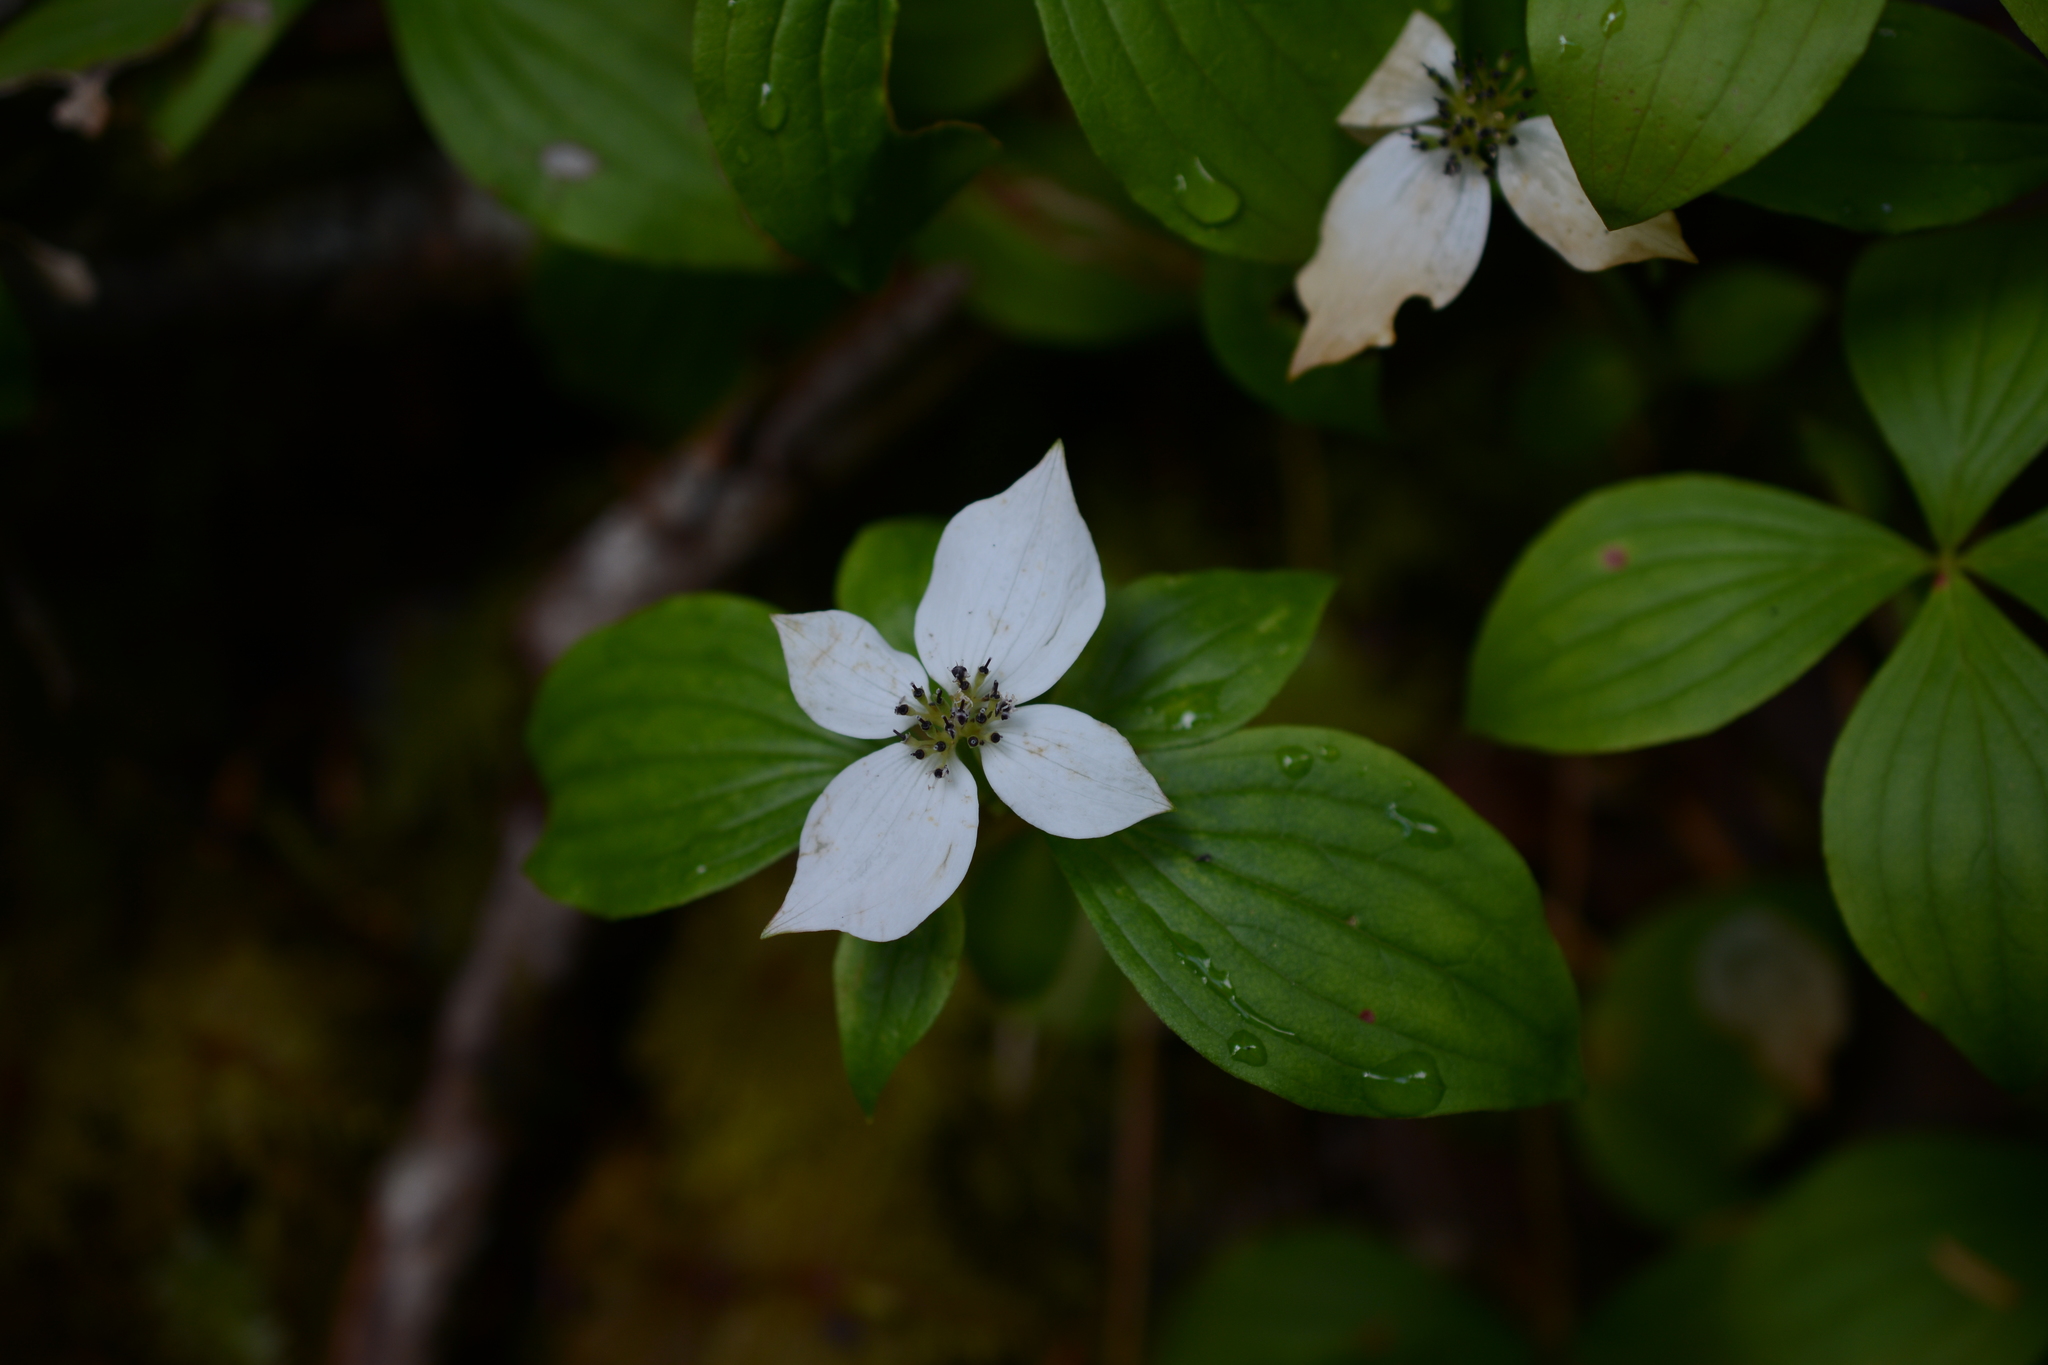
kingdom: Plantae
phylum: Tracheophyta
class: Magnoliopsida
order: Cornales
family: Cornaceae
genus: Cornus
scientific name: Cornus unalaschkensis
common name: Alaska bunchberry
